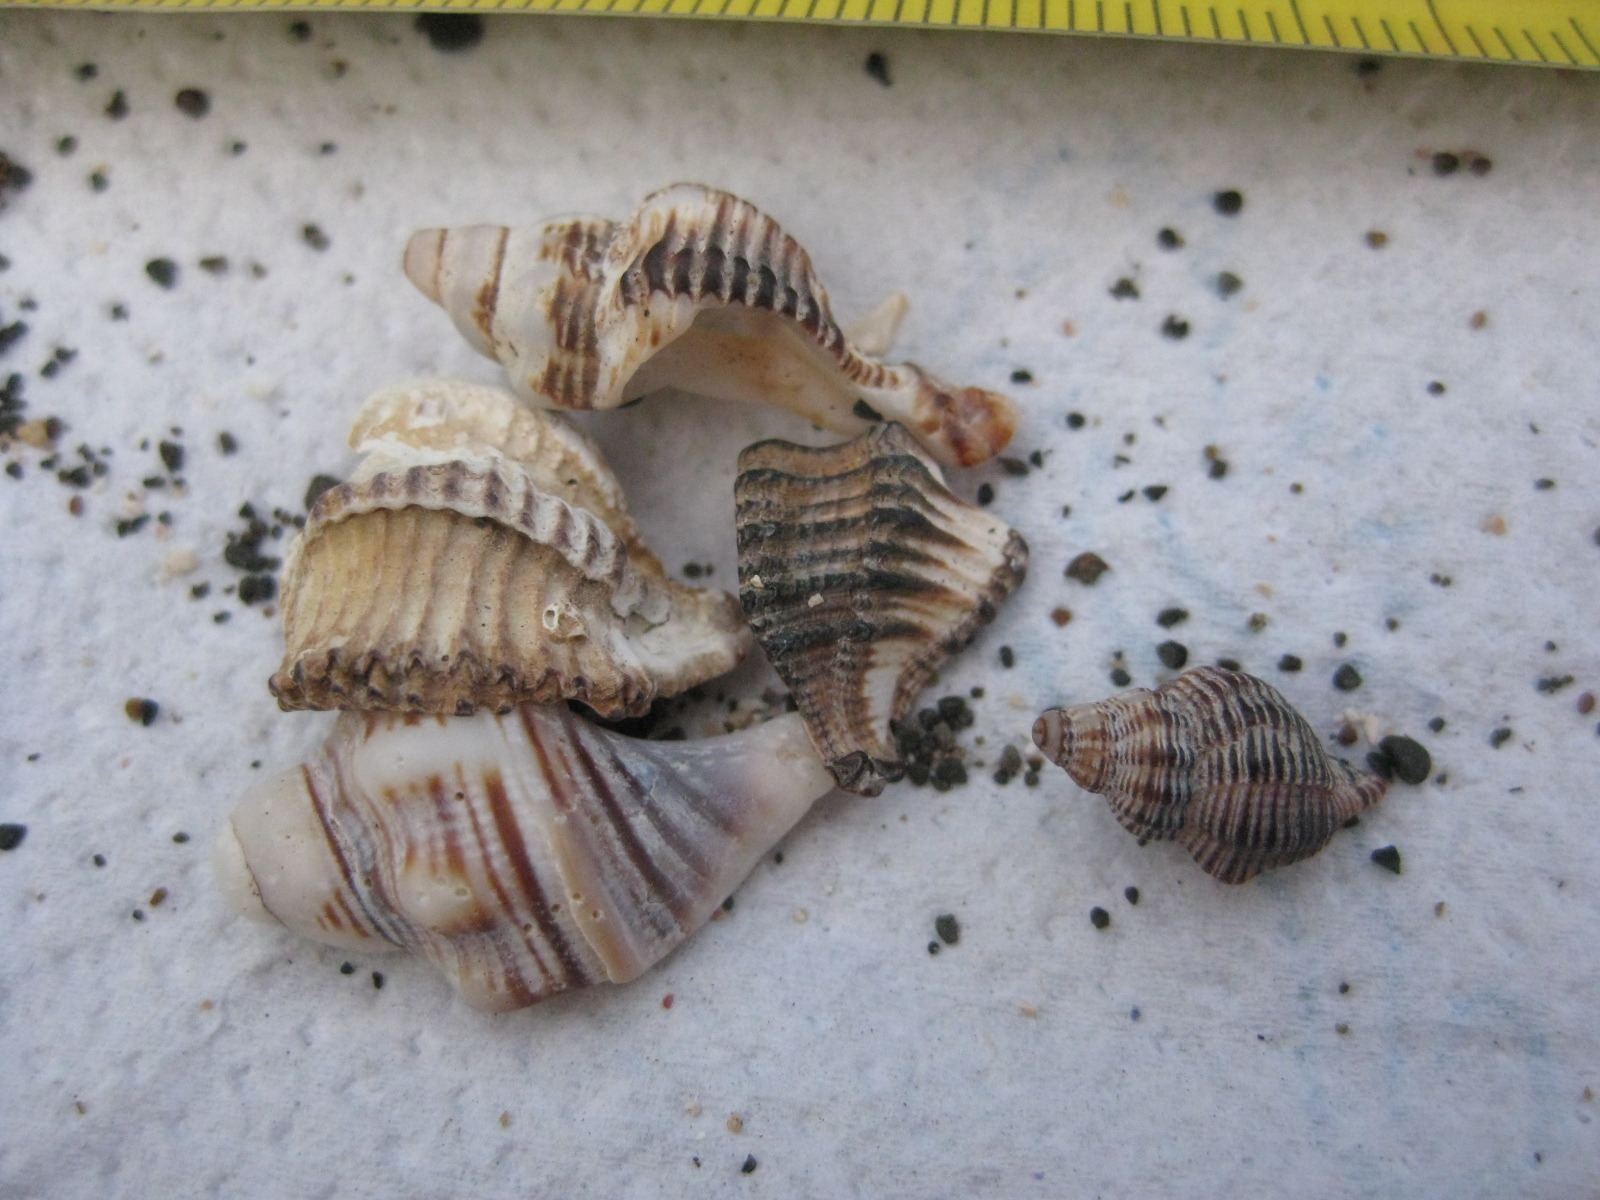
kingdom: Animalia
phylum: Mollusca
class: Gastropoda
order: Neogastropoda
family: Muricidae
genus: Murexsul
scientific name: Murexsul octogonus
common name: Octagon murex
